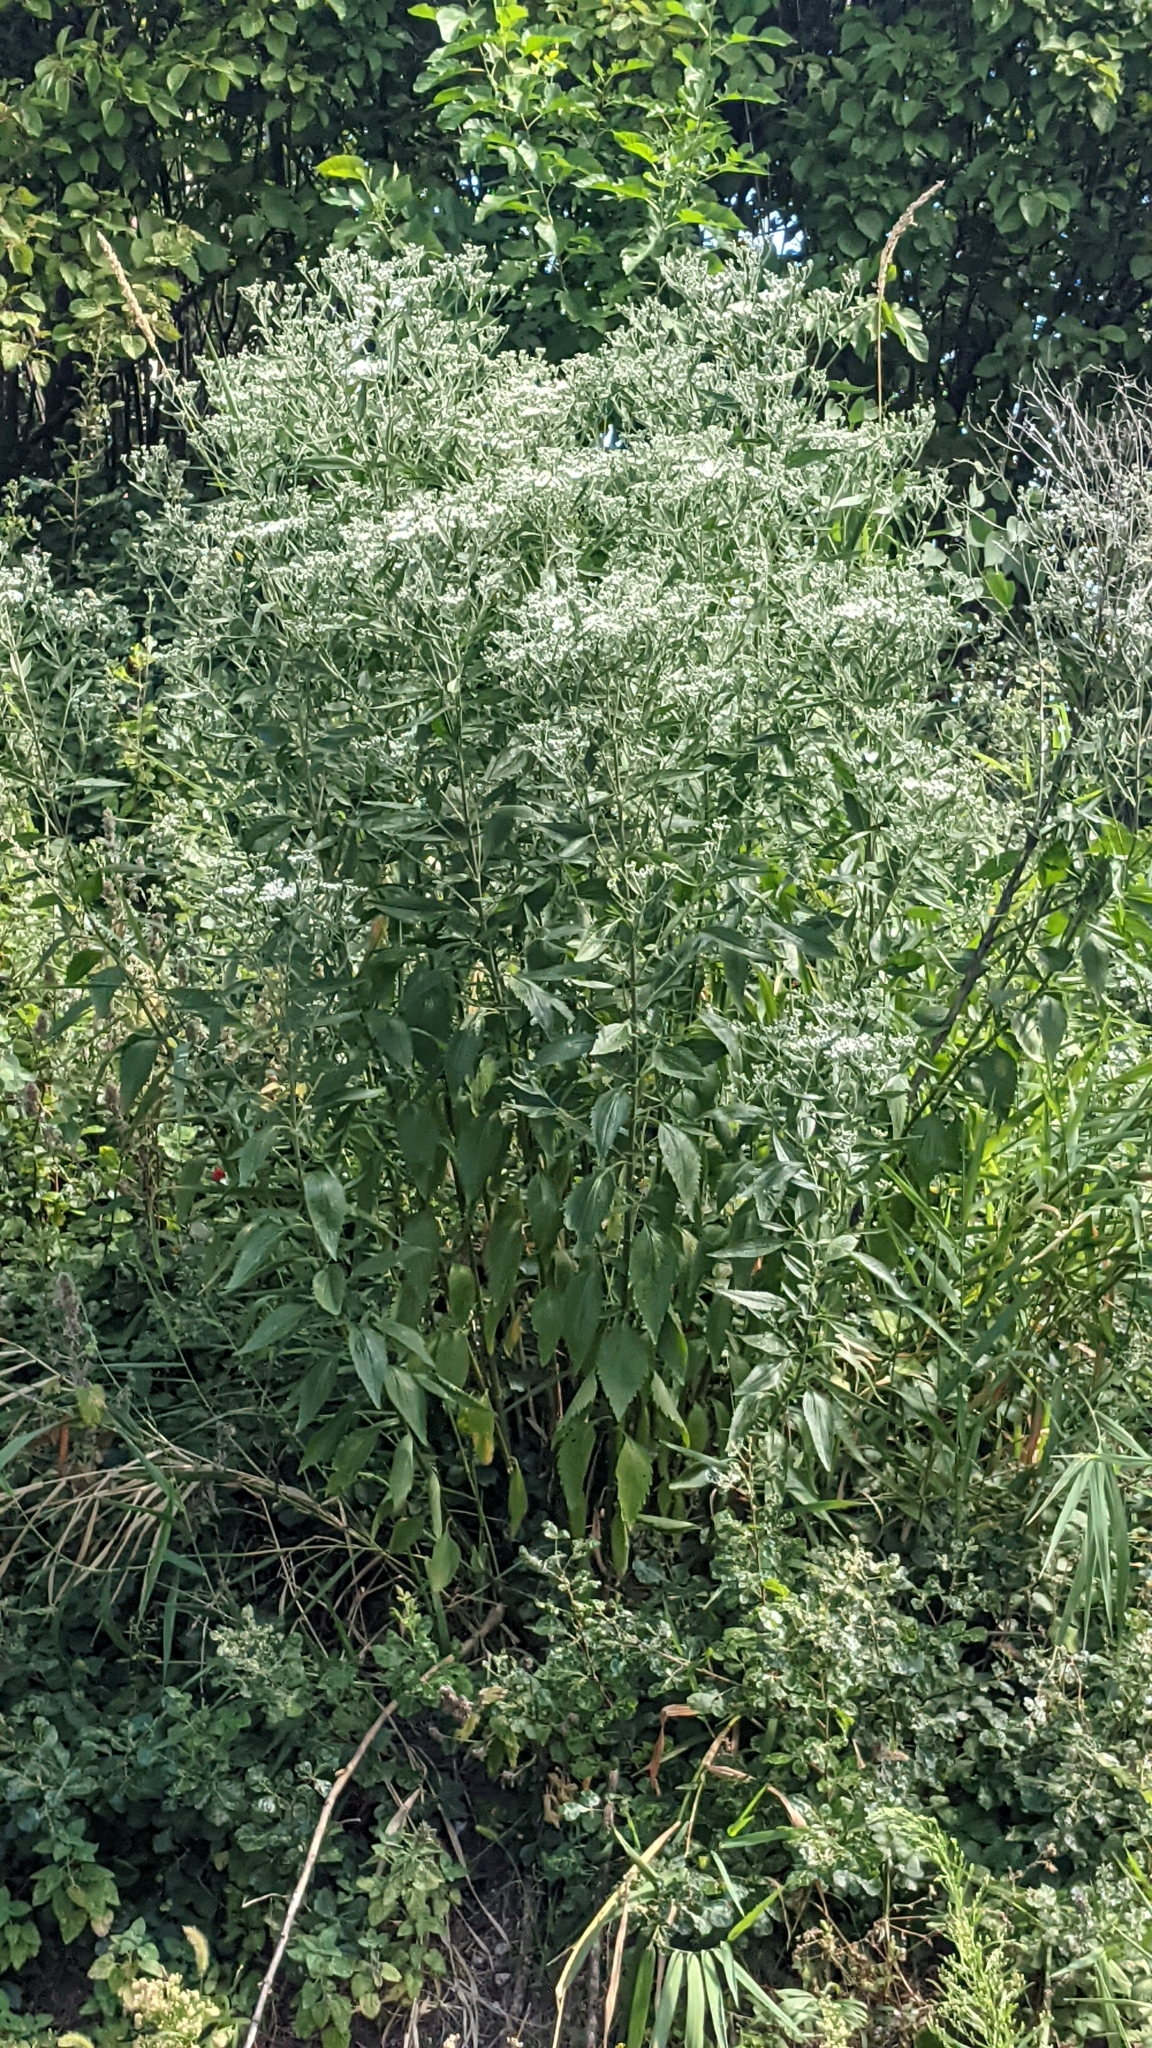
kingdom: Plantae
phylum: Tracheophyta
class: Magnoliopsida
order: Asterales
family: Asteraceae
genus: Eupatorium
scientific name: Eupatorium serotinum
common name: Late boneset
